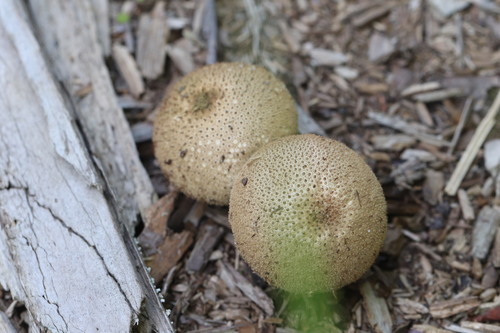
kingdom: Fungi
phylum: Basidiomycota
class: Agaricomycetes
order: Agaricales
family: Lycoperdaceae
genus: Lycoperdon
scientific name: Lycoperdon nigrescens
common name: Blackish puffball
